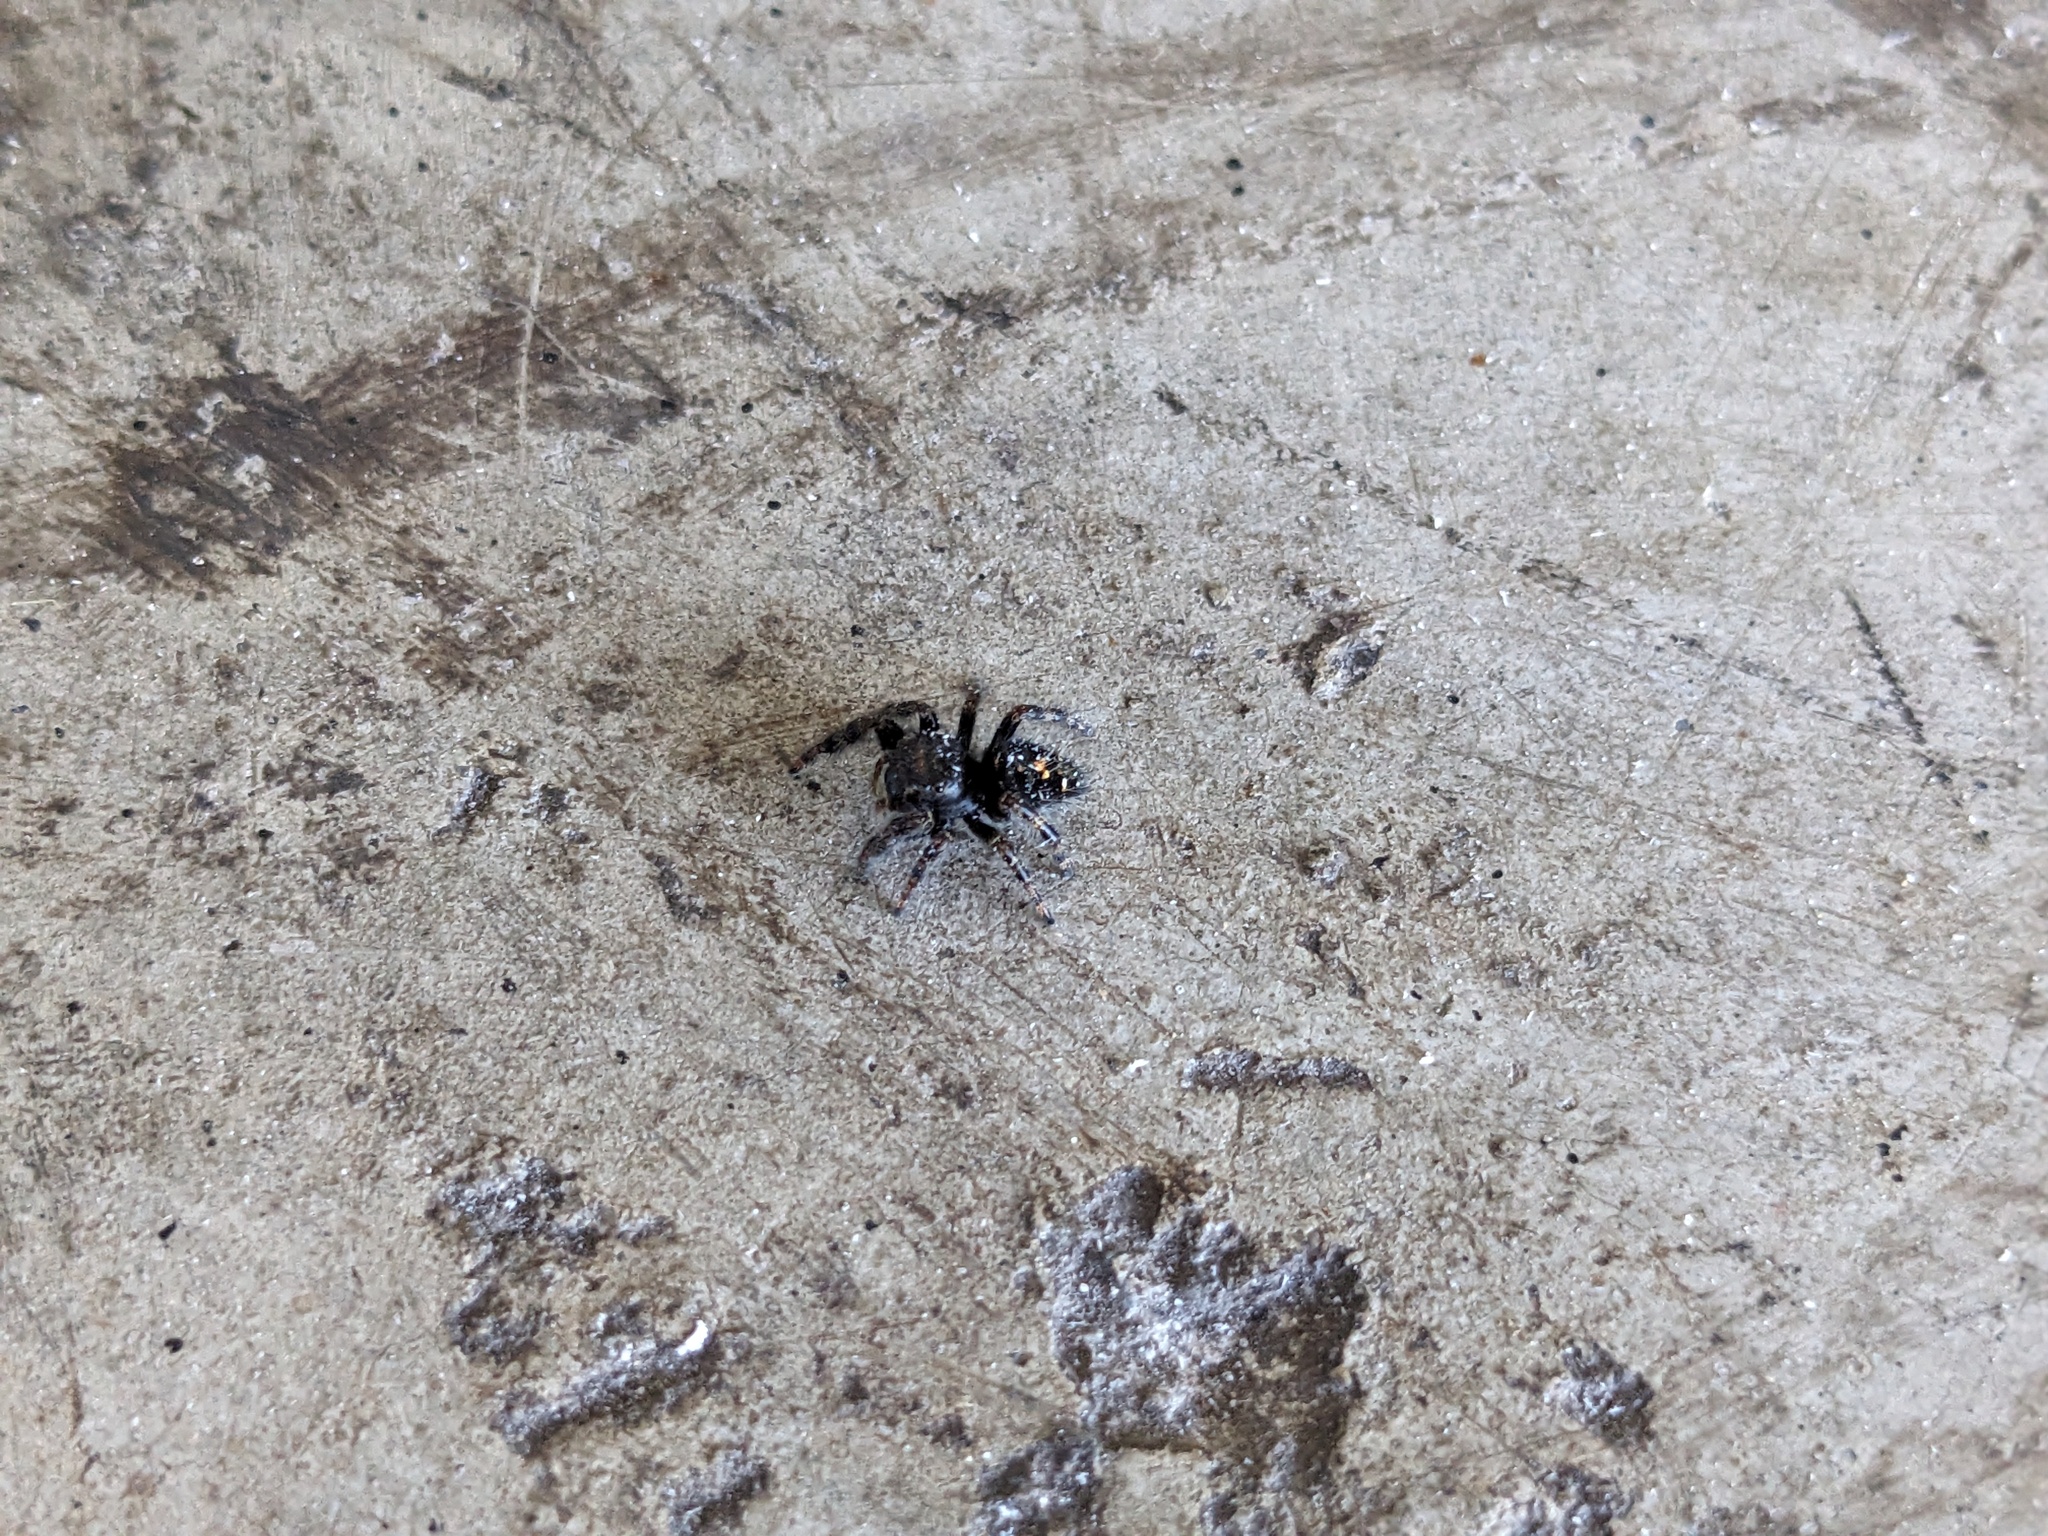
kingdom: Animalia
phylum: Arthropoda
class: Arachnida
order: Araneae
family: Salticidae
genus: Phidippus
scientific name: Phidippus audax
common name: Bold jumper
